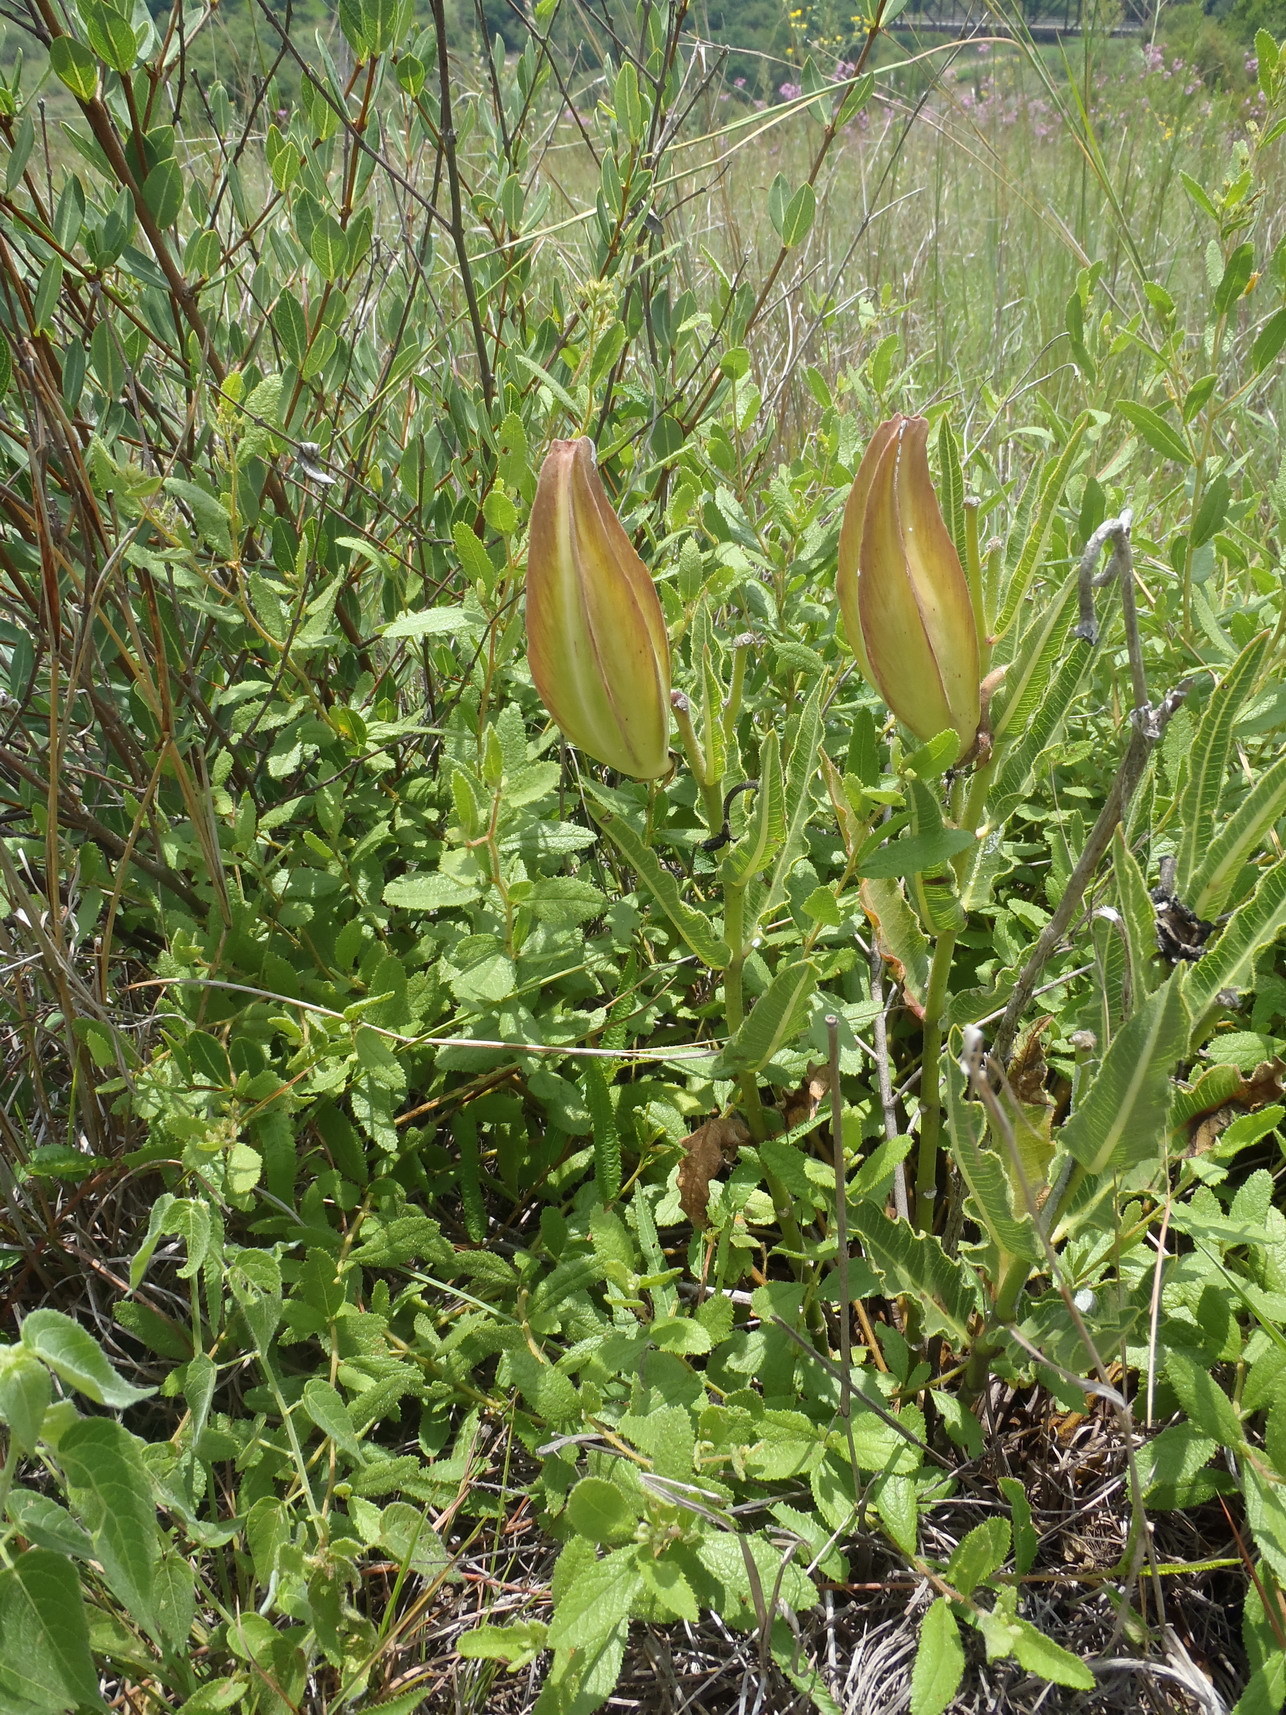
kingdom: Plantae
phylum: Tracheophyta
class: Magnoliopsida
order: Gentianales
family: Apocynaceae
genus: Pachycarpus
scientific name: Pachycarpus schinzianus
